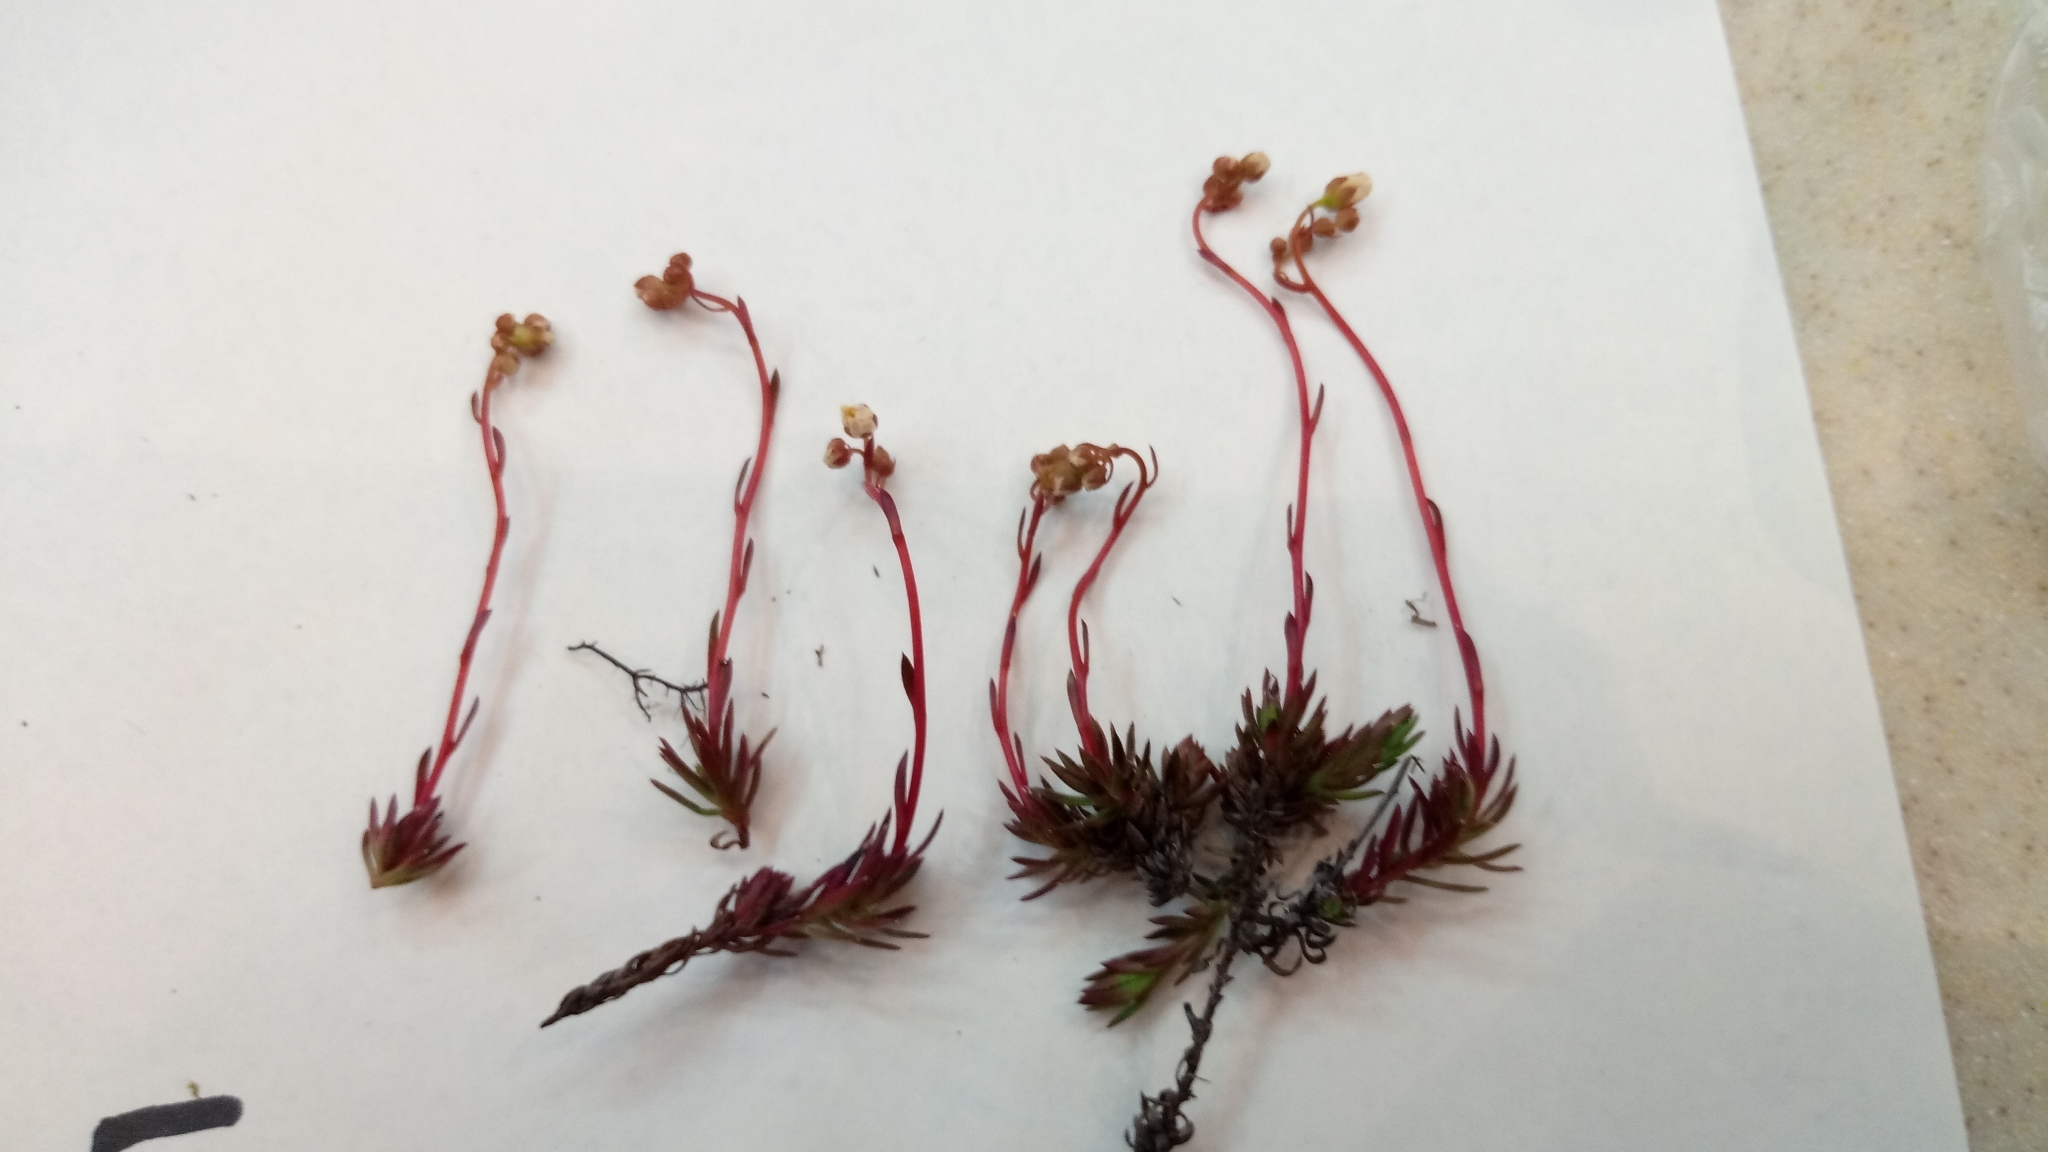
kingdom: Plantae
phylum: Tracheophyta
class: Magnoliopsida
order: Saxifragales
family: Saxifragaceae
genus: Saxifraga
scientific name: Saxifraga
